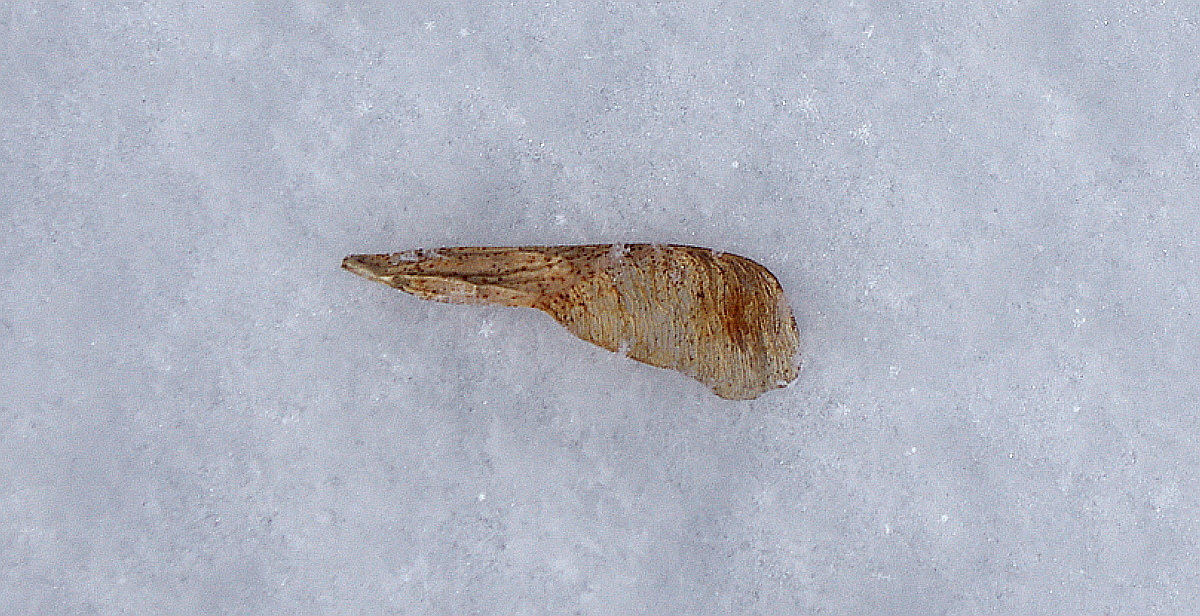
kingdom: Plantae
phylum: Tracheophyta
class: Magnoliopsida
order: Sapindales
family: Sapindaceae
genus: Acer
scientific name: Acer negundo
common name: Ashleaf maple
